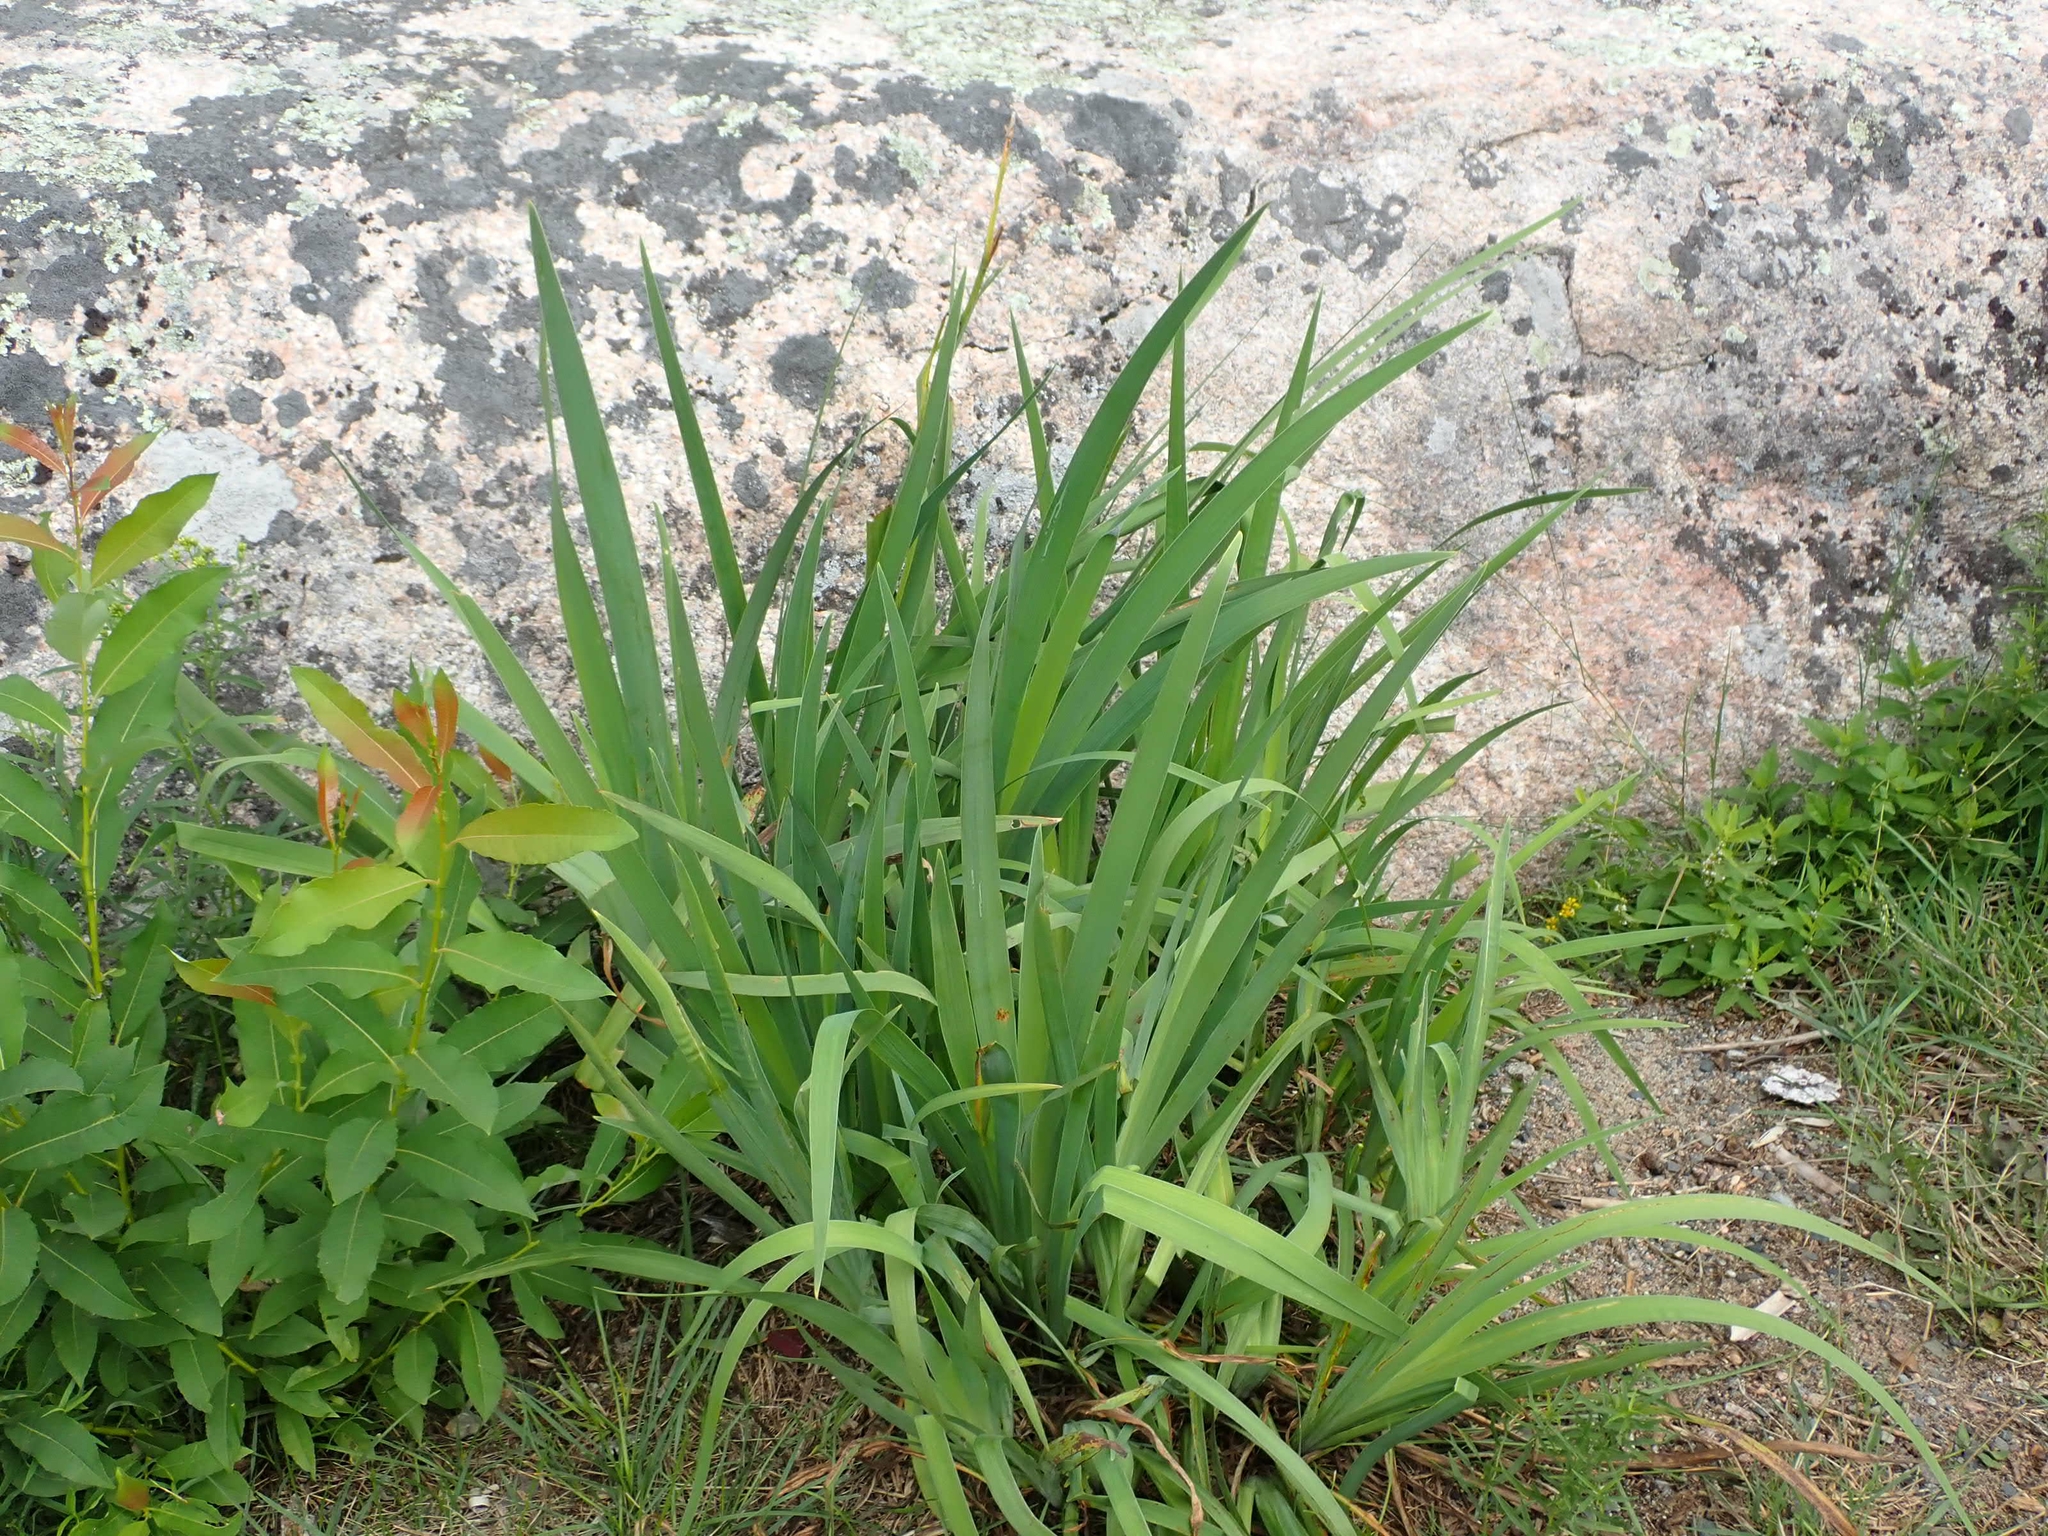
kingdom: Plantae
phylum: Tracheophyta
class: Liliopsida
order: Asparagales
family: Iridaceae
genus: Iris
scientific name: Iris versicolor
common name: Purple iris
